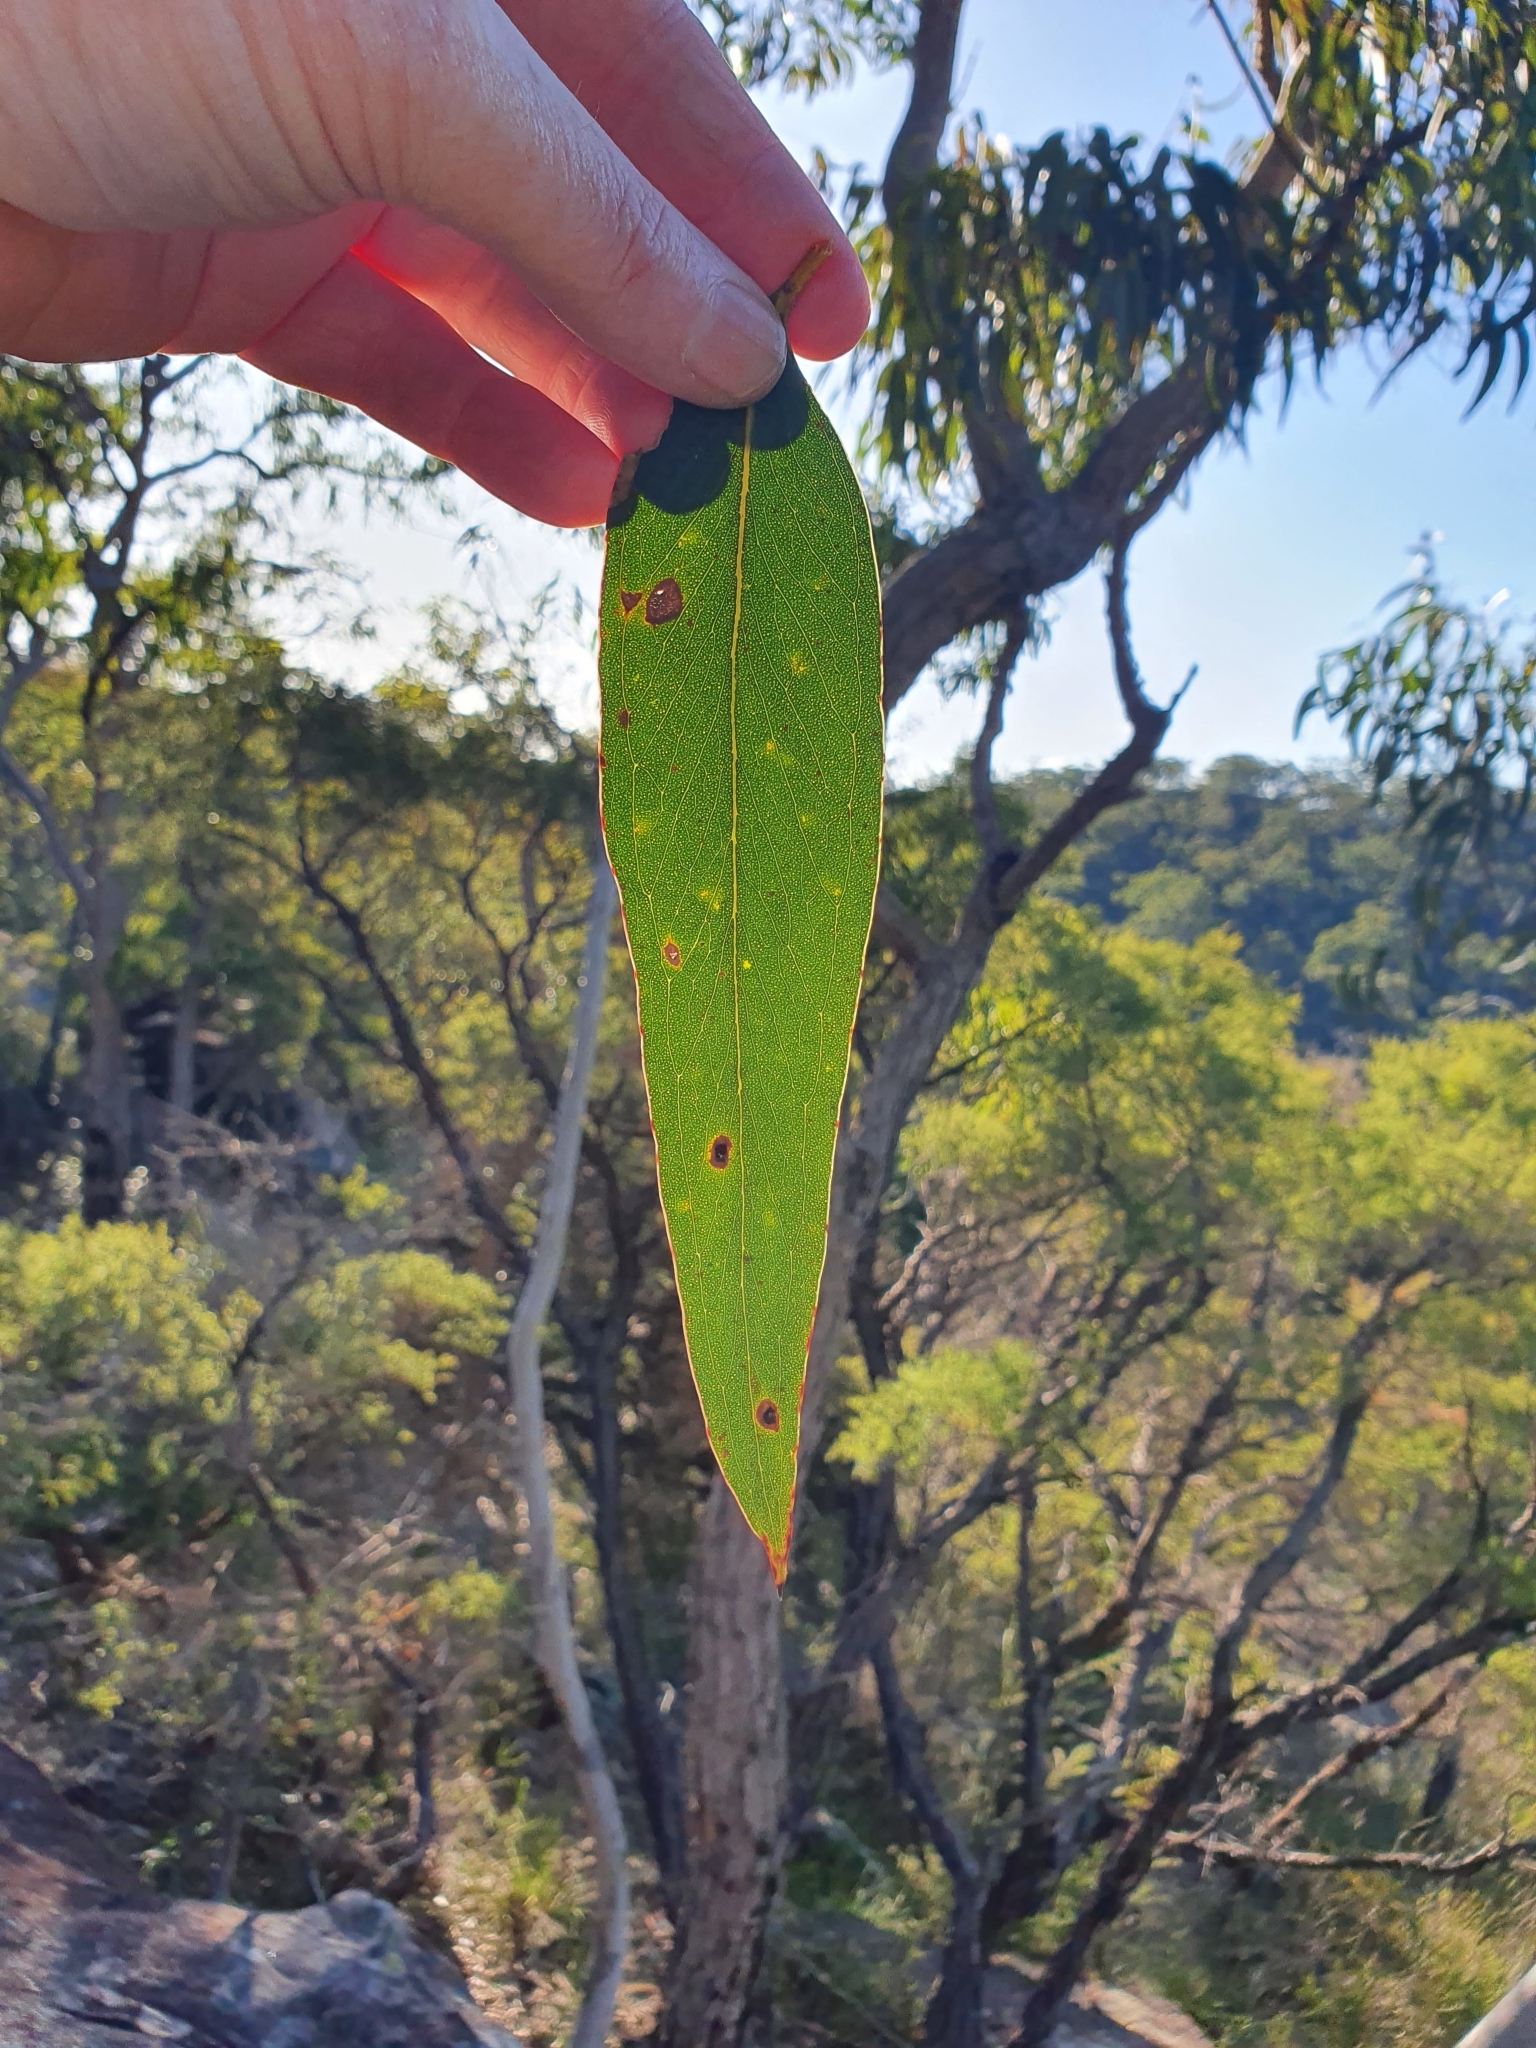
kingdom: Plantae
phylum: Tracheophyta
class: Magnoliopsida
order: Myrtales
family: Myrtaceae
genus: Eucalyptus
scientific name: Eucalyptus haemastoma
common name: Scribbly-gum
